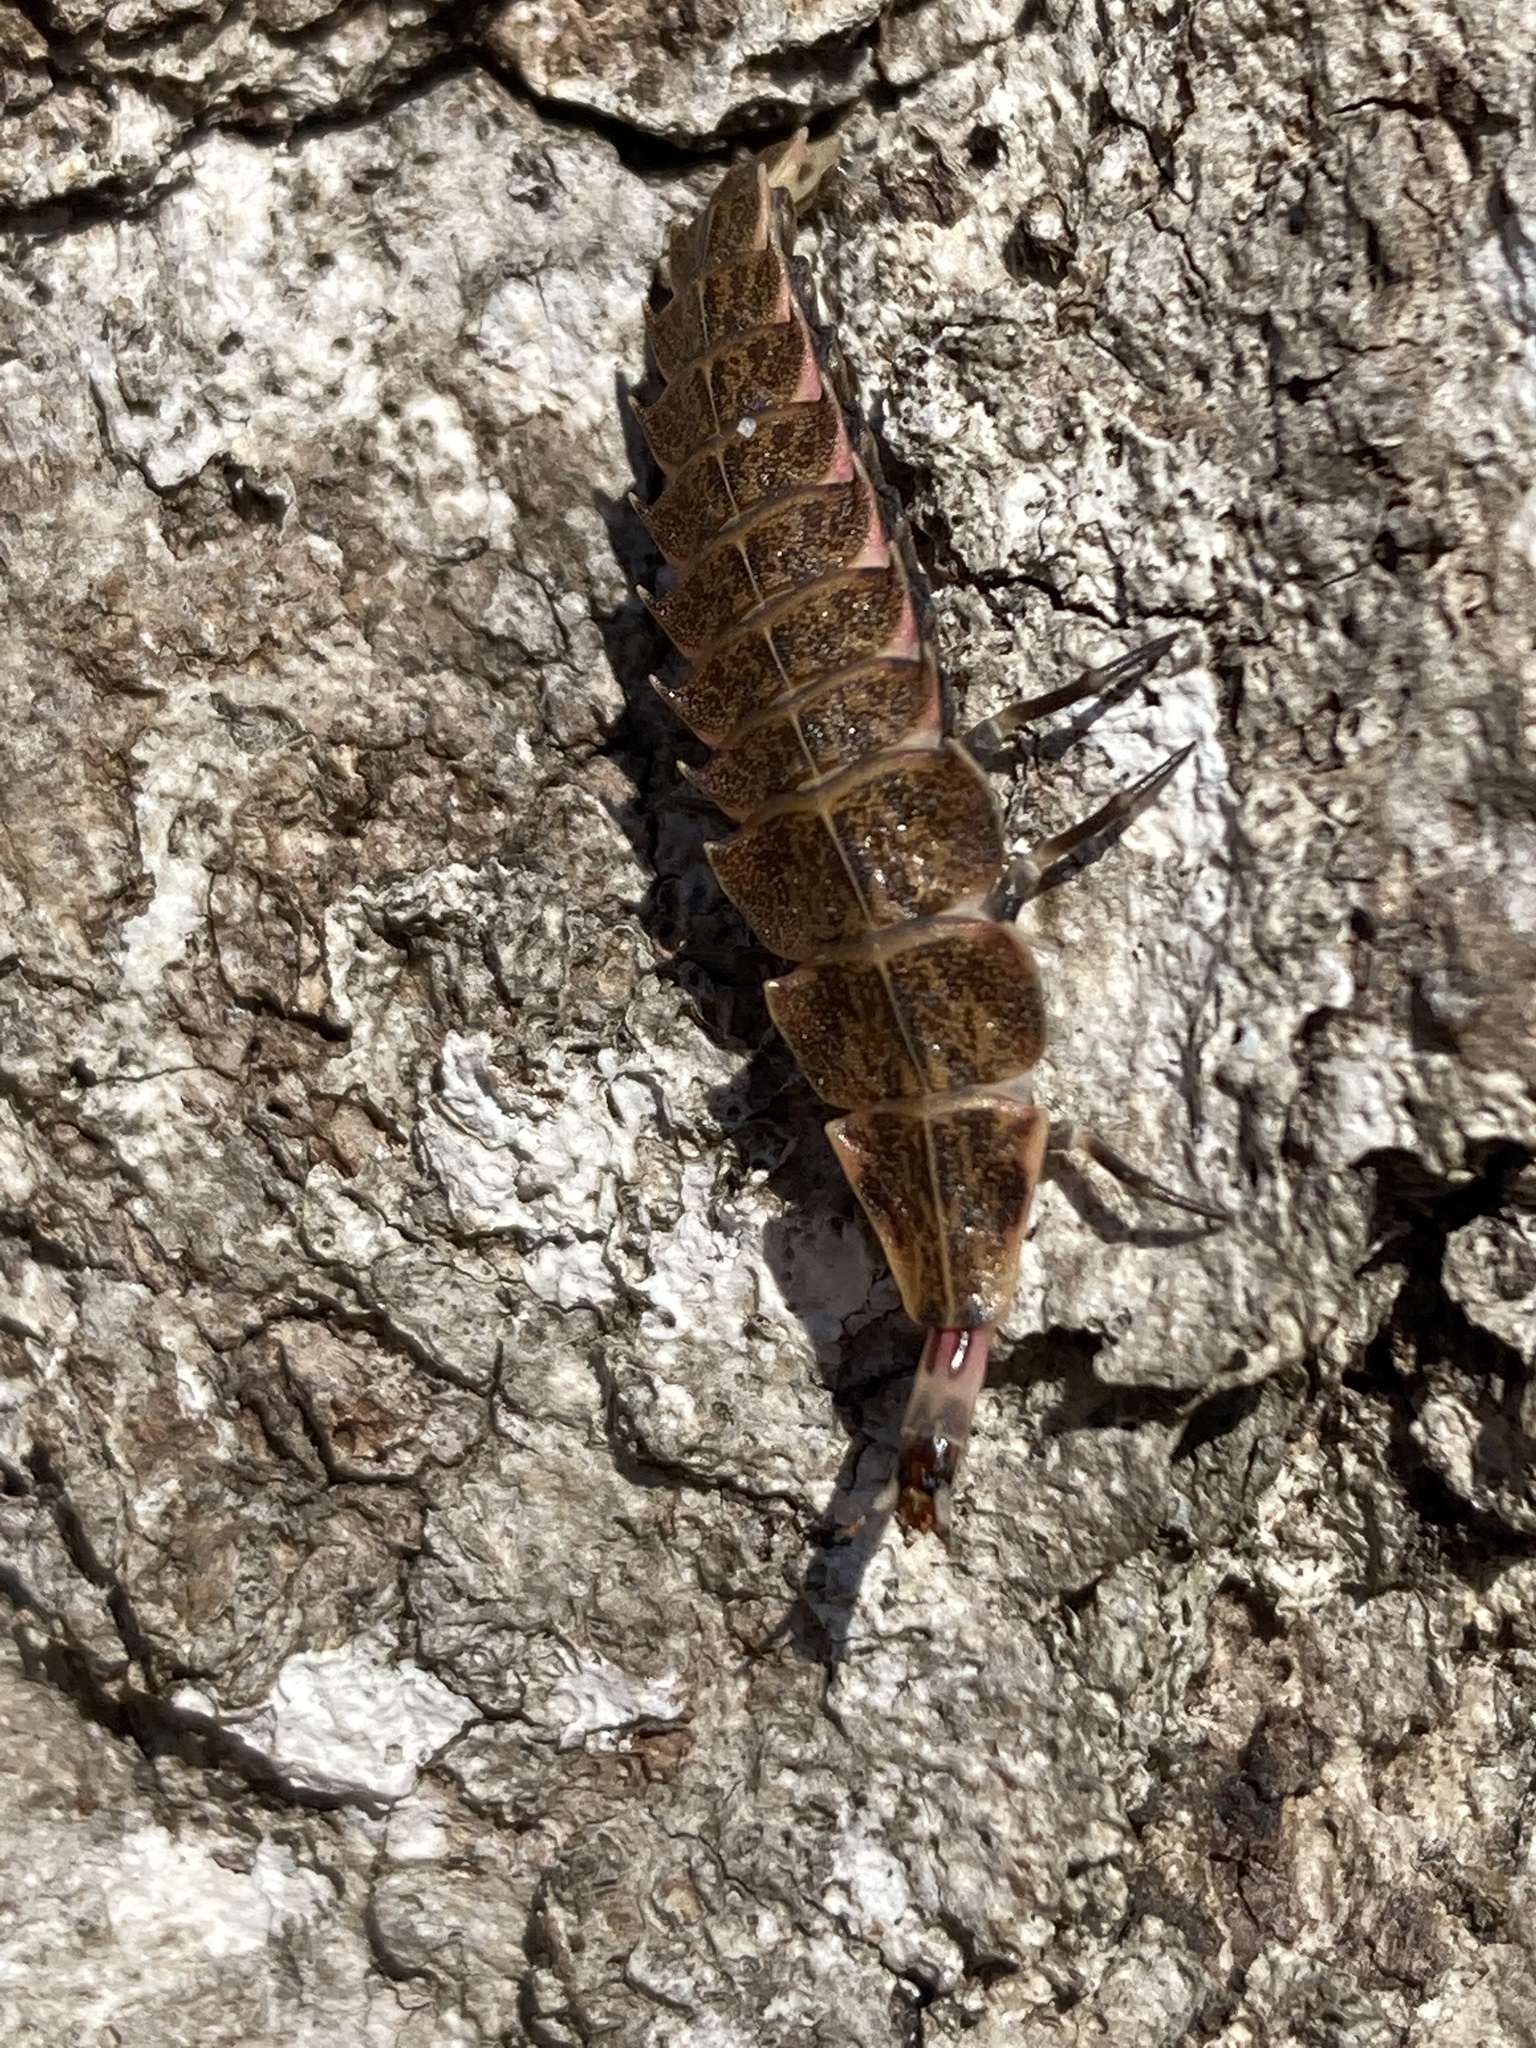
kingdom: Animalia
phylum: Arthropoda
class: Insecta
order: Coleoptera
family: Lampyridae
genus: Pyractomena
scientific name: Pyractomena borealis
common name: Northern firefly
